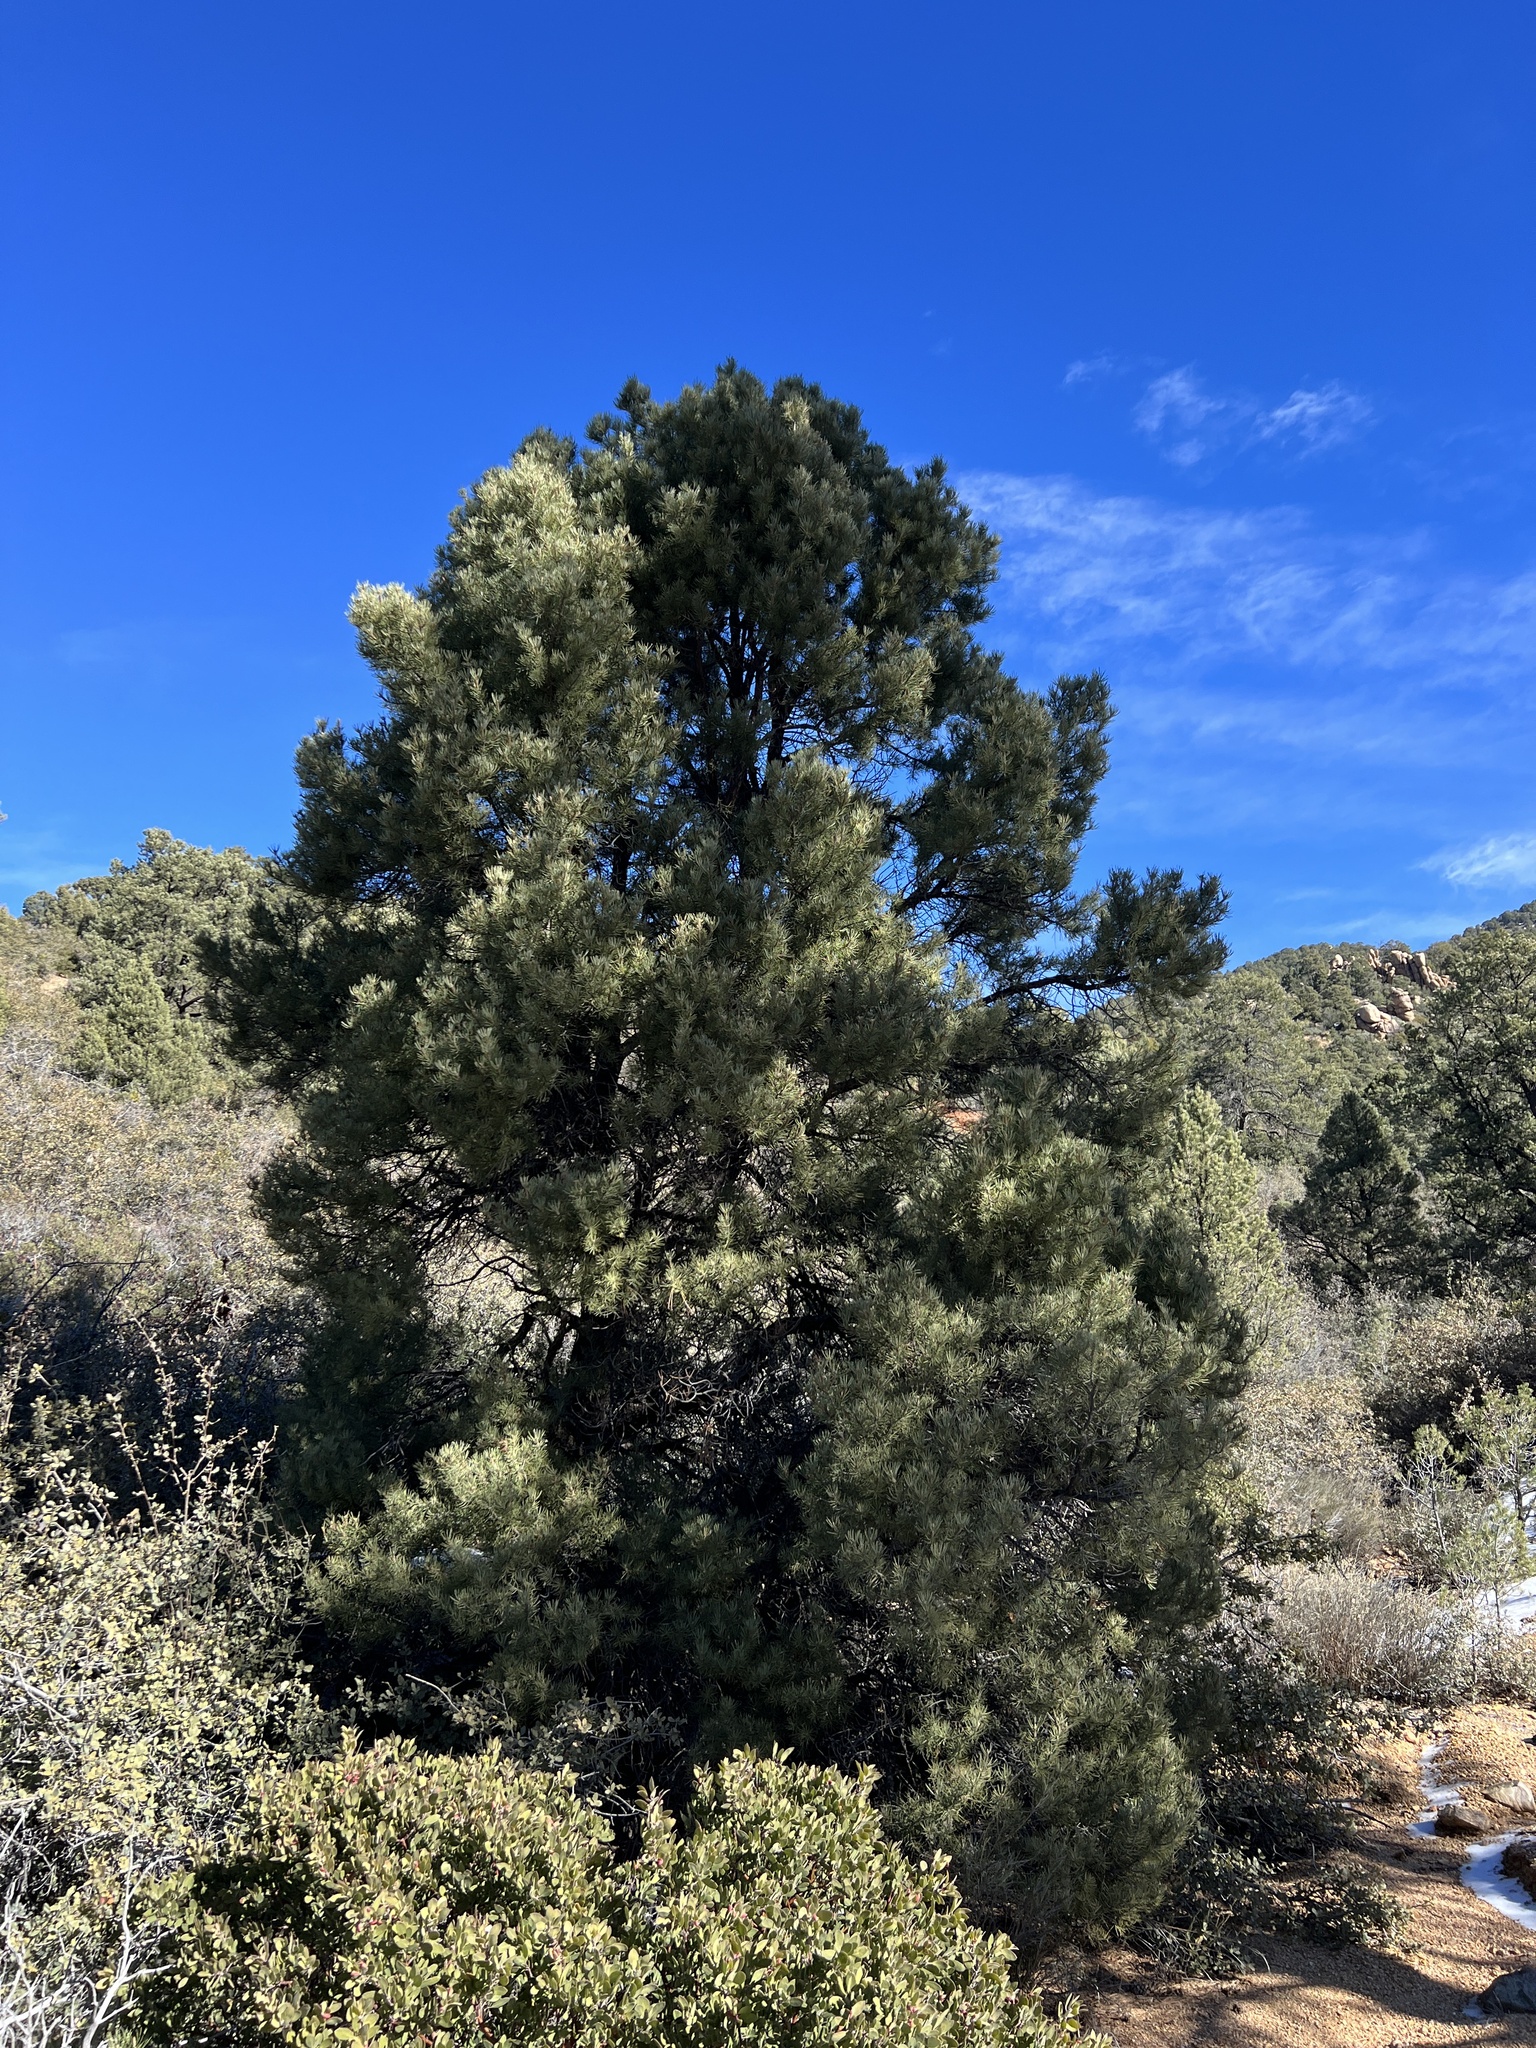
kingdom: Plantae
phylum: Tracheophyta
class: Pinopsida
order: Pinales
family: Pinaceae
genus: Pinus
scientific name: Pinus monophylla
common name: One-leaved nut pine
